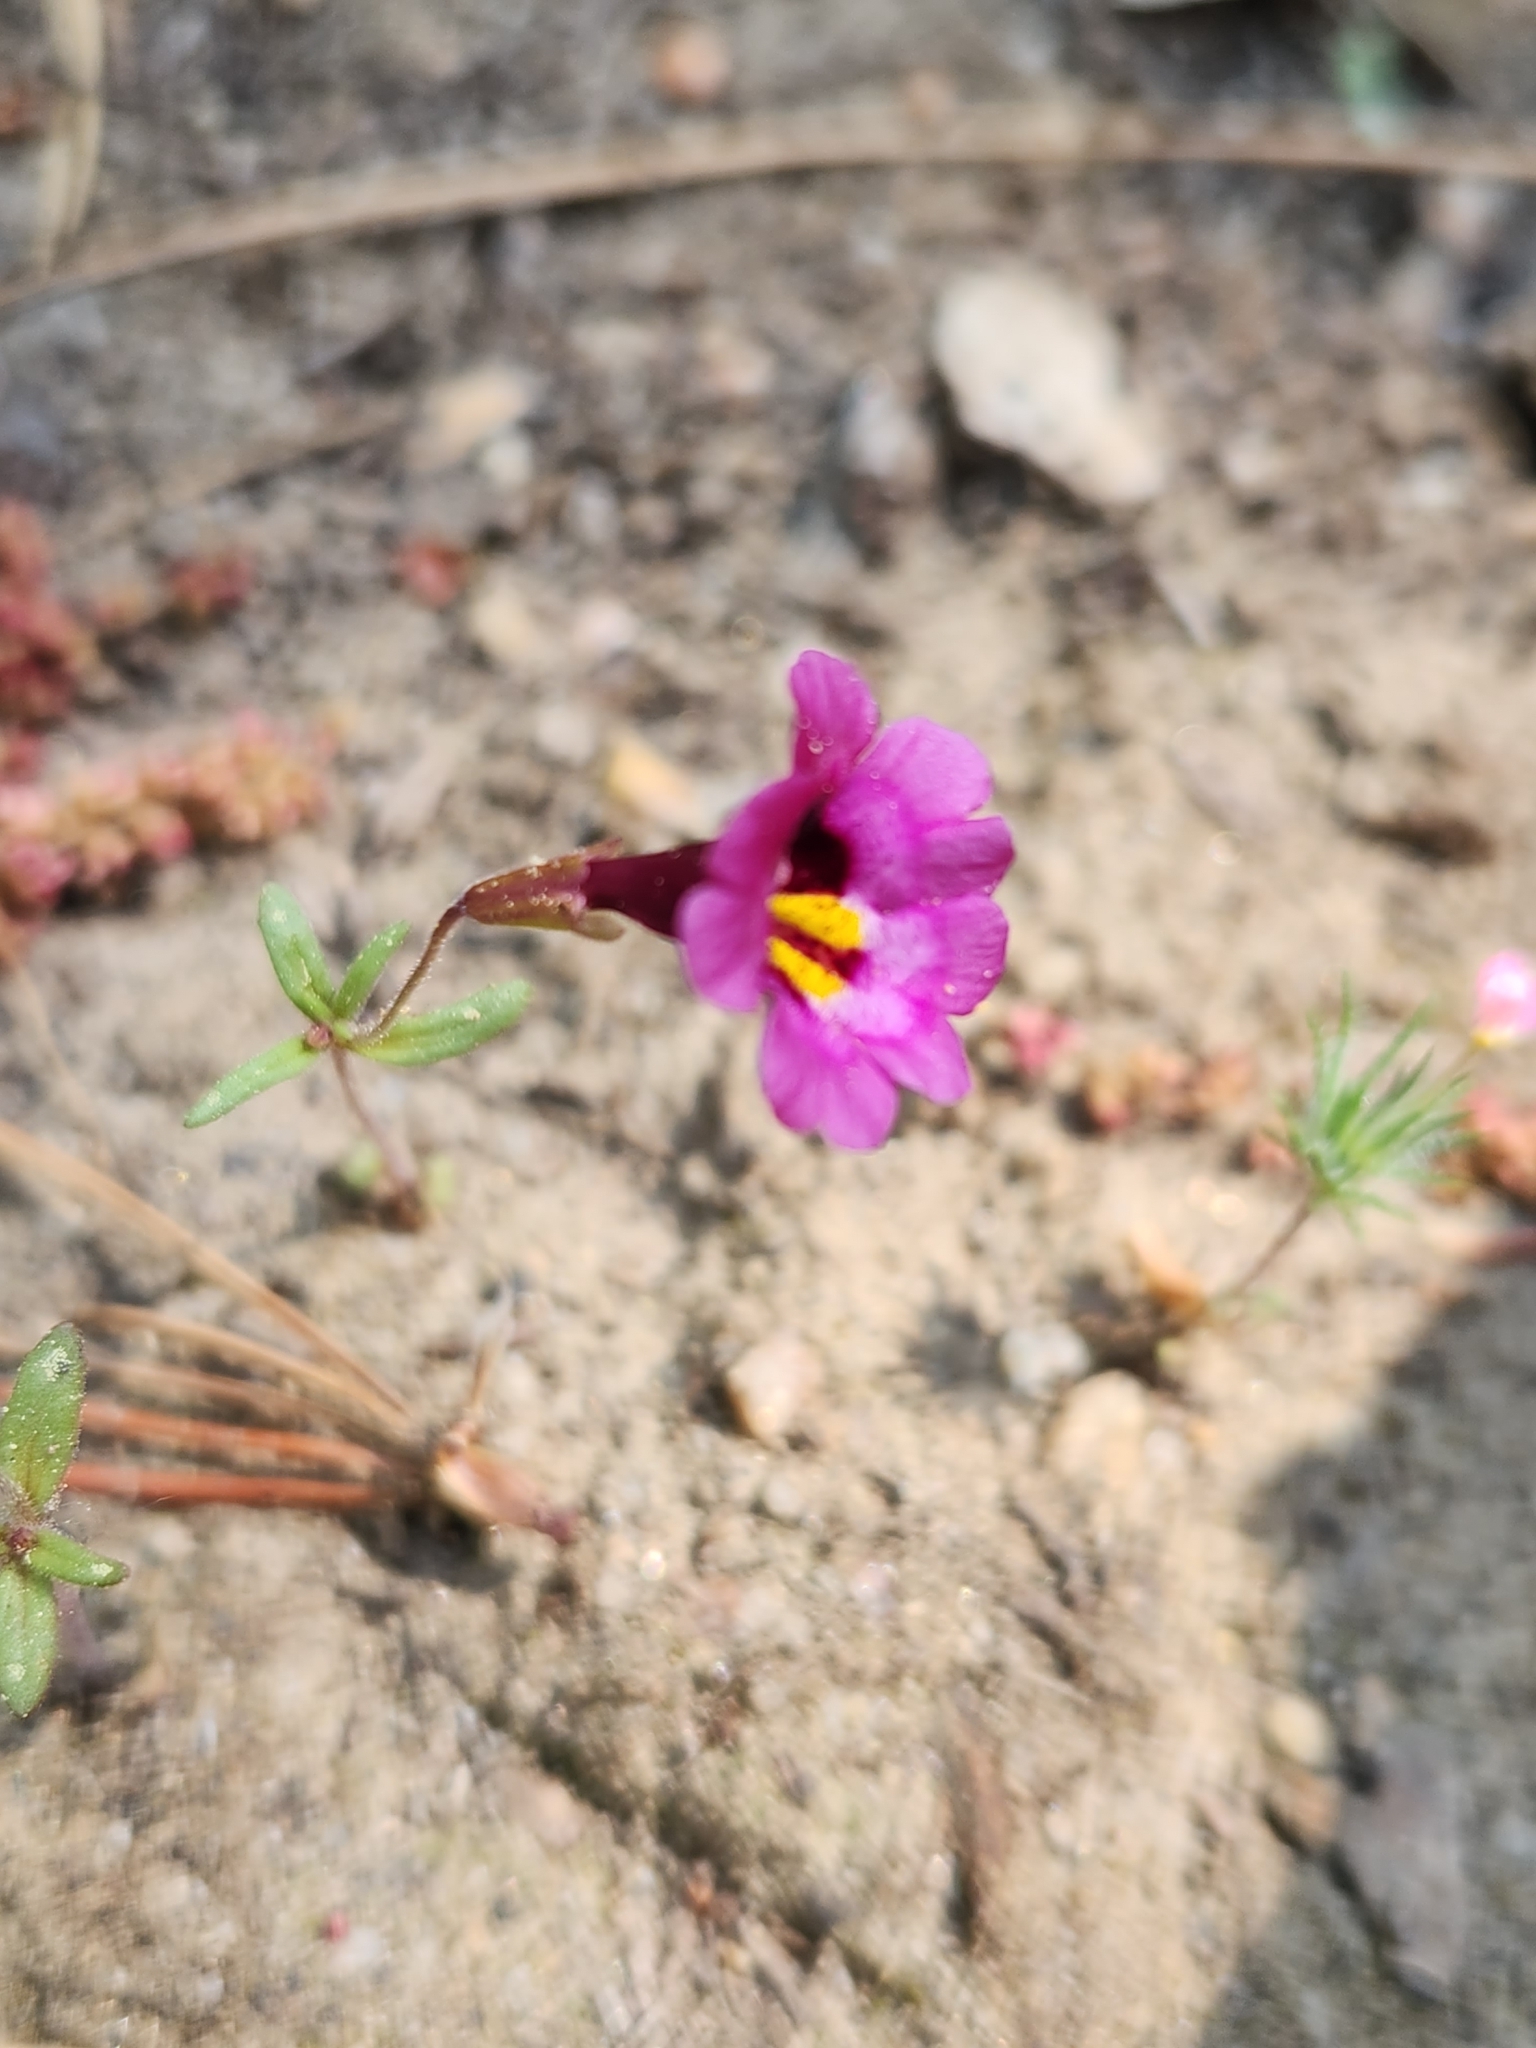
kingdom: Plantae
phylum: Tracheophyta
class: Magnoliopsida
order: Lamiales
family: Phrymaceae
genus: Erythranthe
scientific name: Erythranthe diffusa
